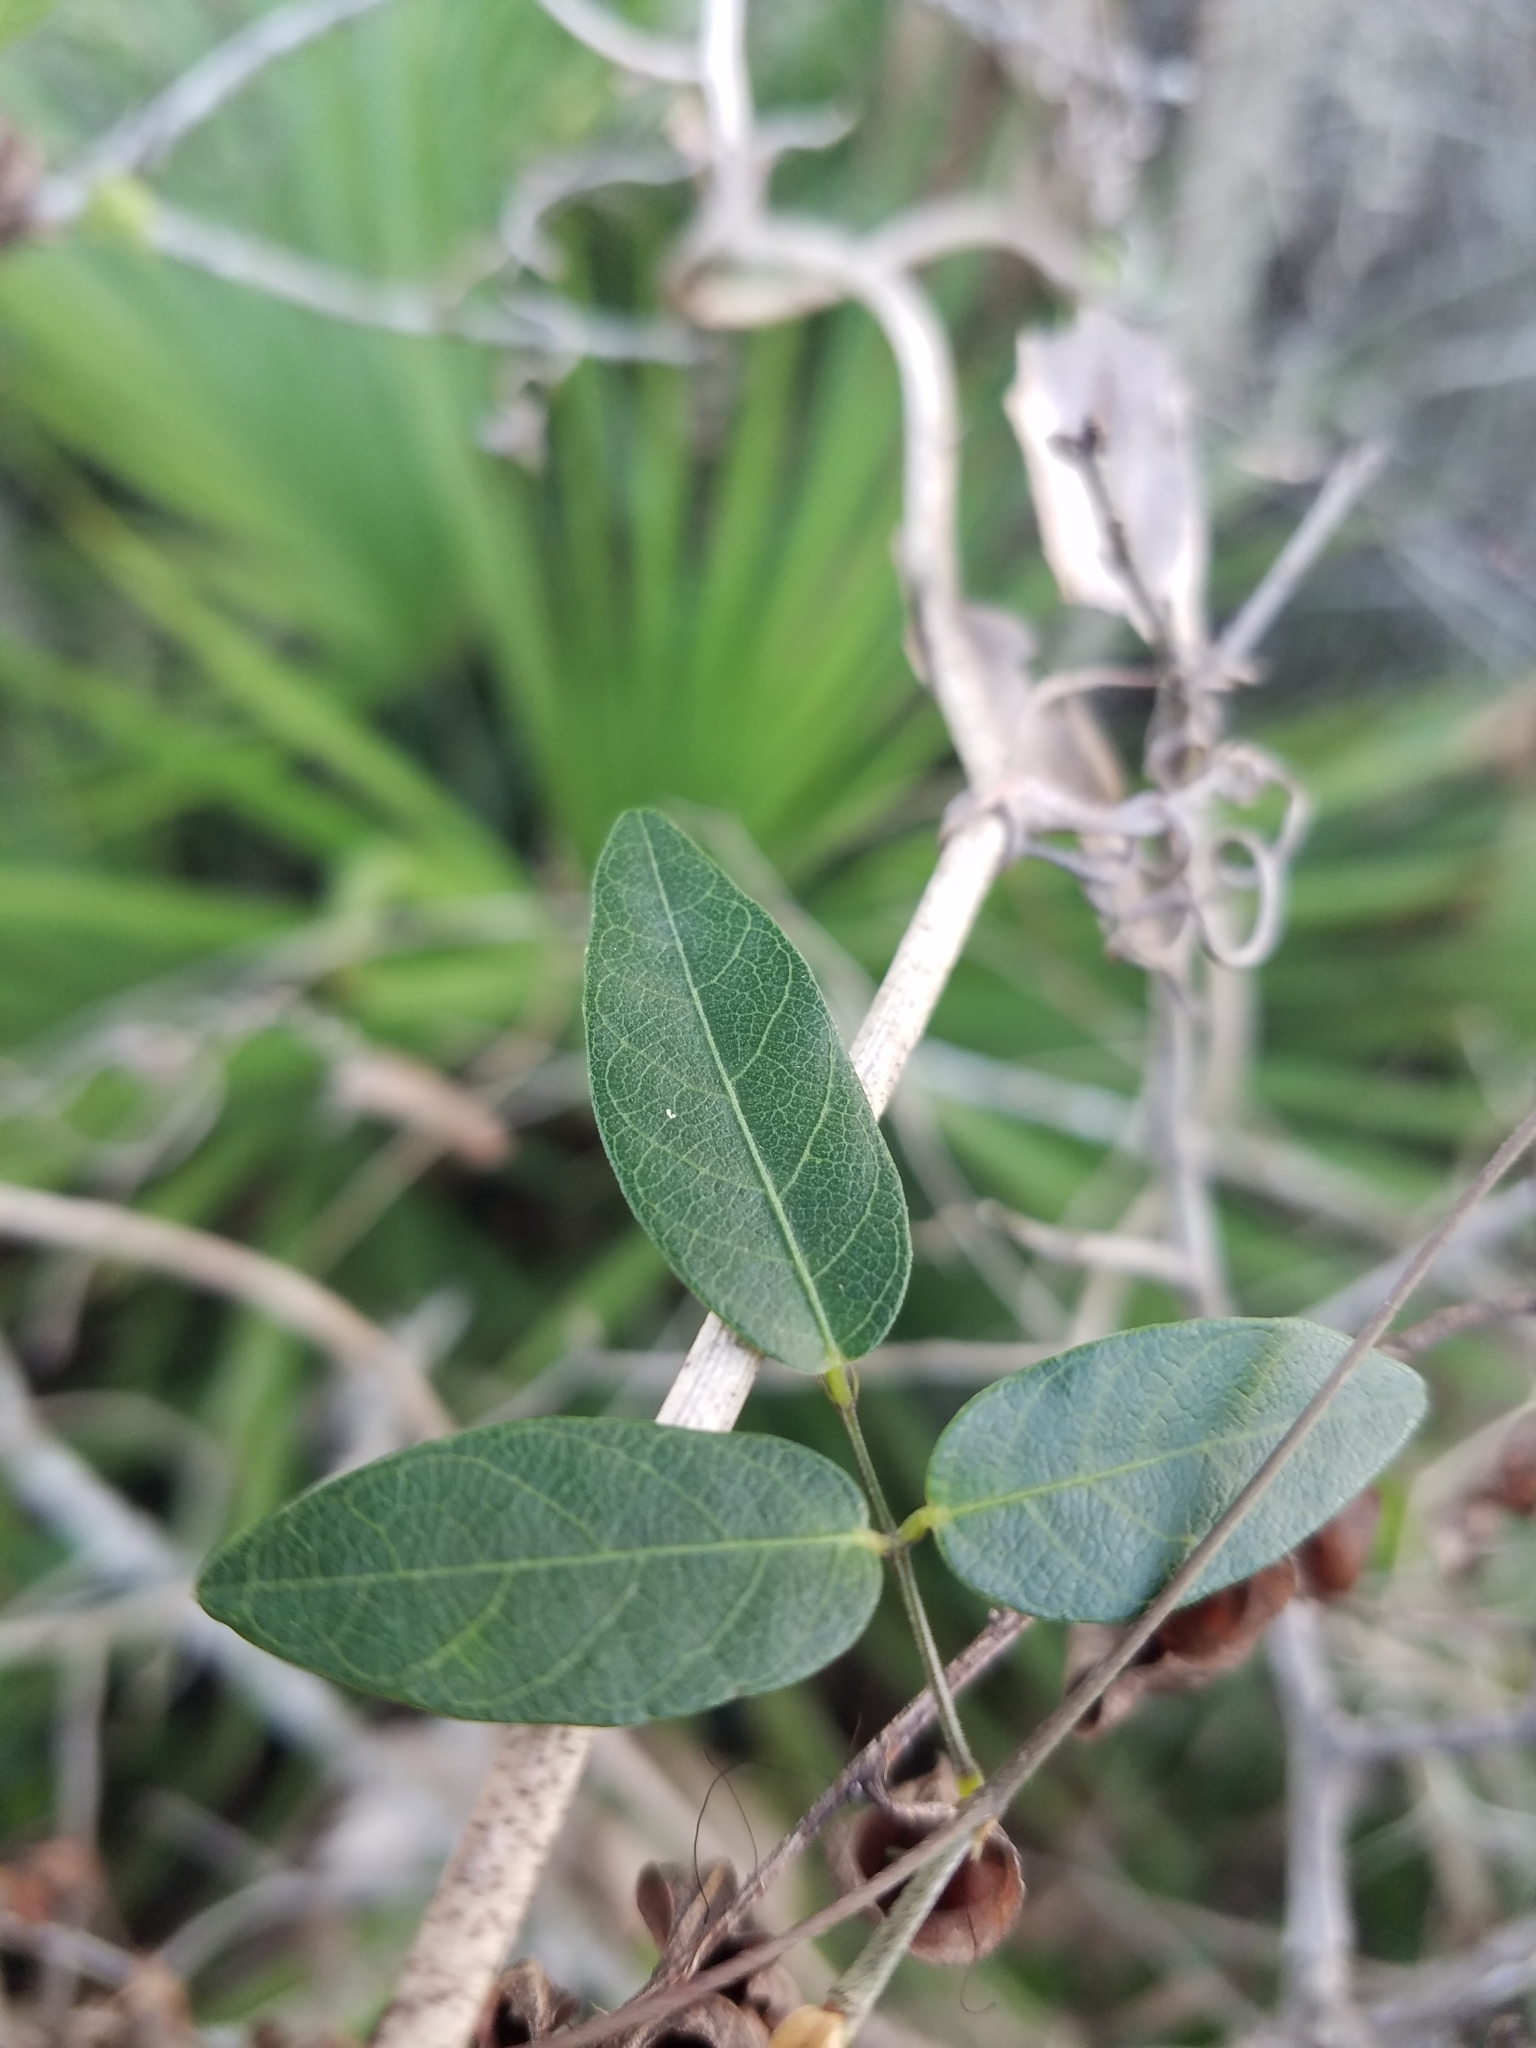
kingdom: Plantae
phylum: Tracheophyta
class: Magnoliopsida
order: Fabales
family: Fabaceae
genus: Centrosema
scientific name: Centrosema arenicola
